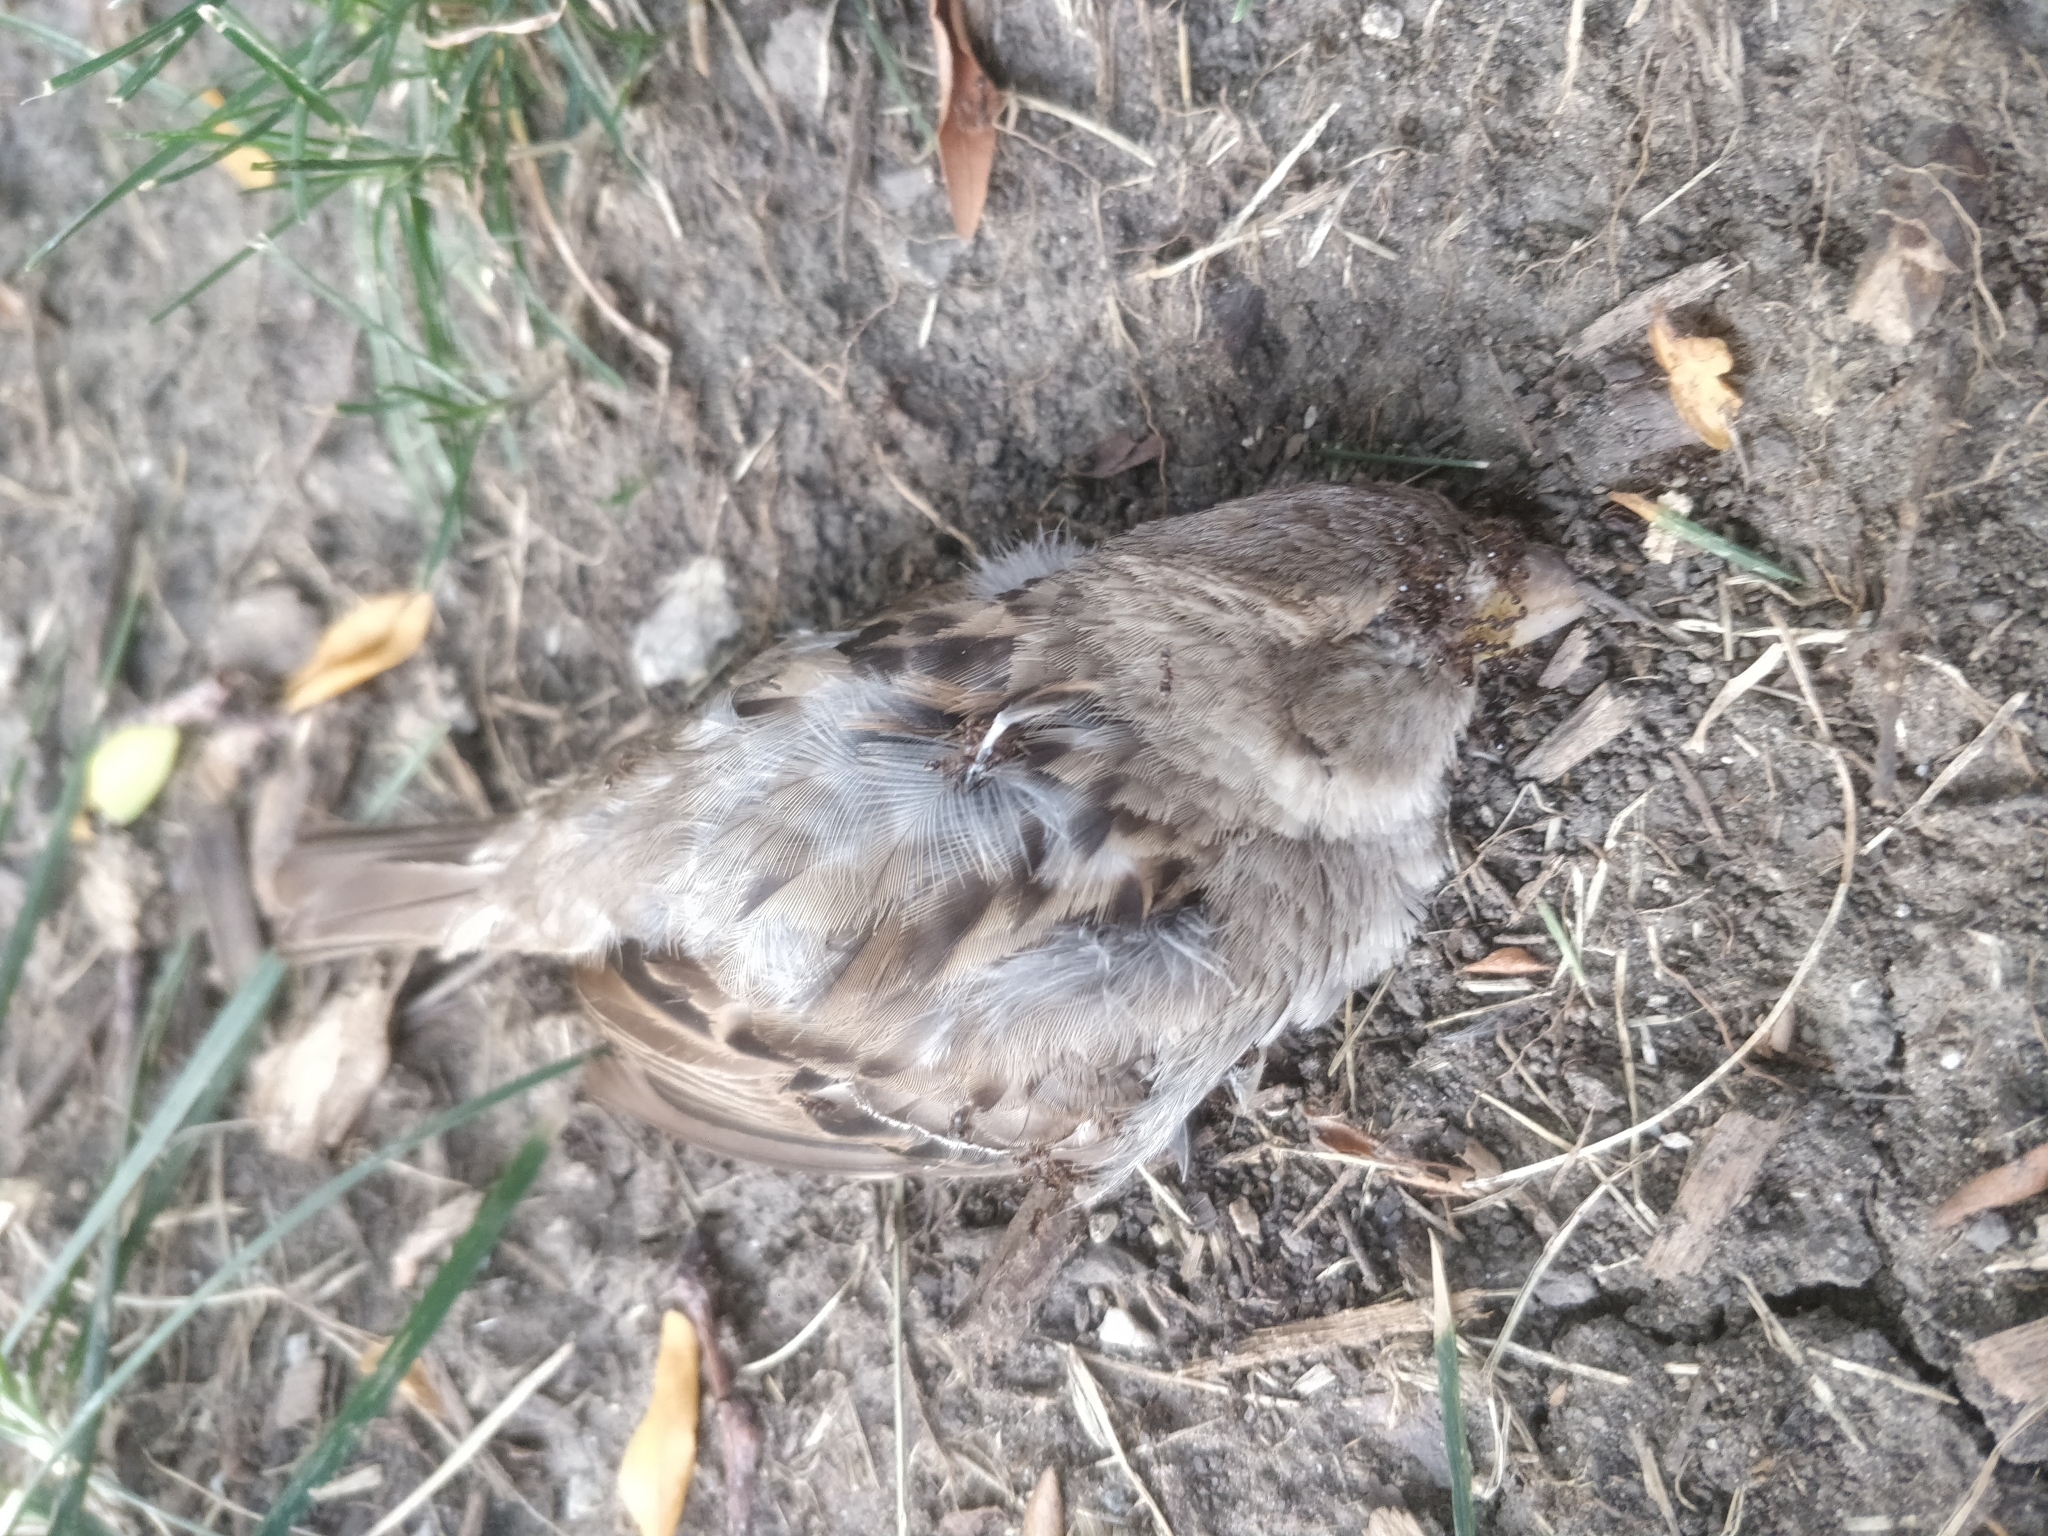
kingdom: Animalia
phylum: Chordata
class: Aves
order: Passeriformes
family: Passeridae
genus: Passer
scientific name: Passer domesticus
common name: House sparrow
